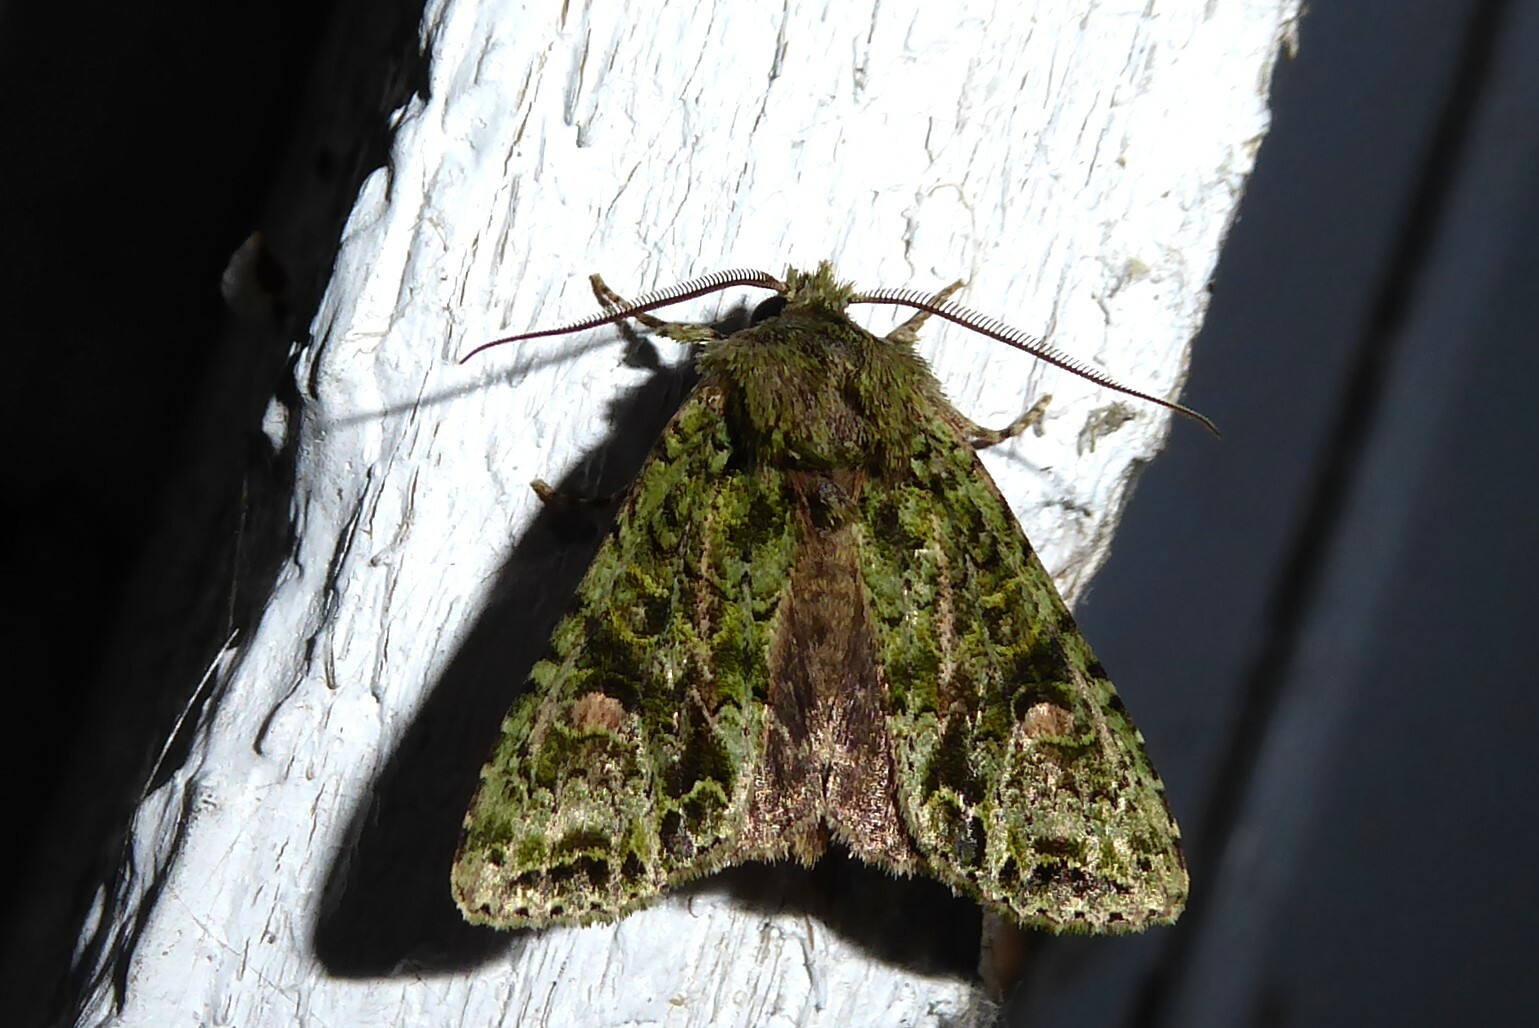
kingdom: Animalia
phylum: Arthropoda
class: Insecta
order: Lepidoptera
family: Noctuidae
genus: Ichneutica
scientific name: Ichneutica
